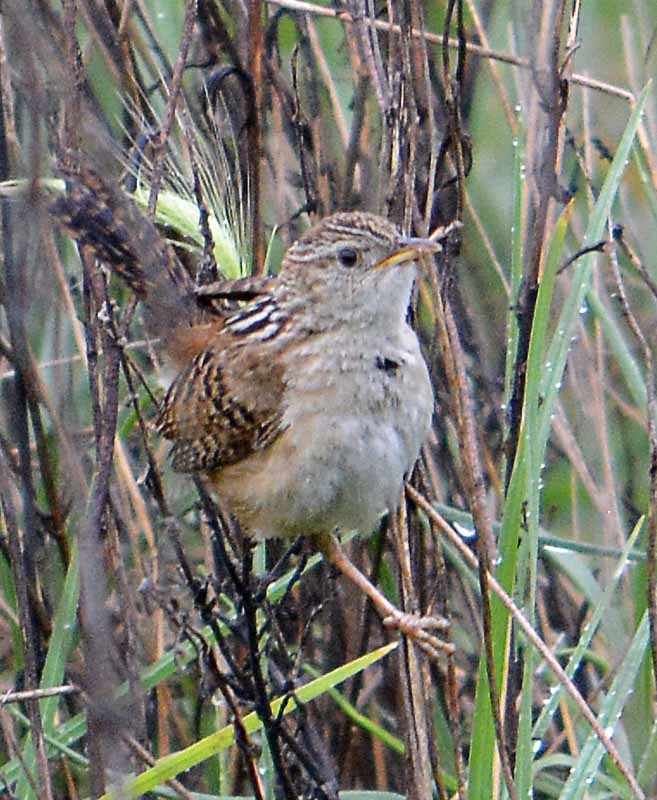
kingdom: Animalia
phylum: Chordata
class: Aves
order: Passeriformes
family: Troglodytidae
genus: Cistothorus
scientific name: Cistothorus platensis
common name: Sedge wren
